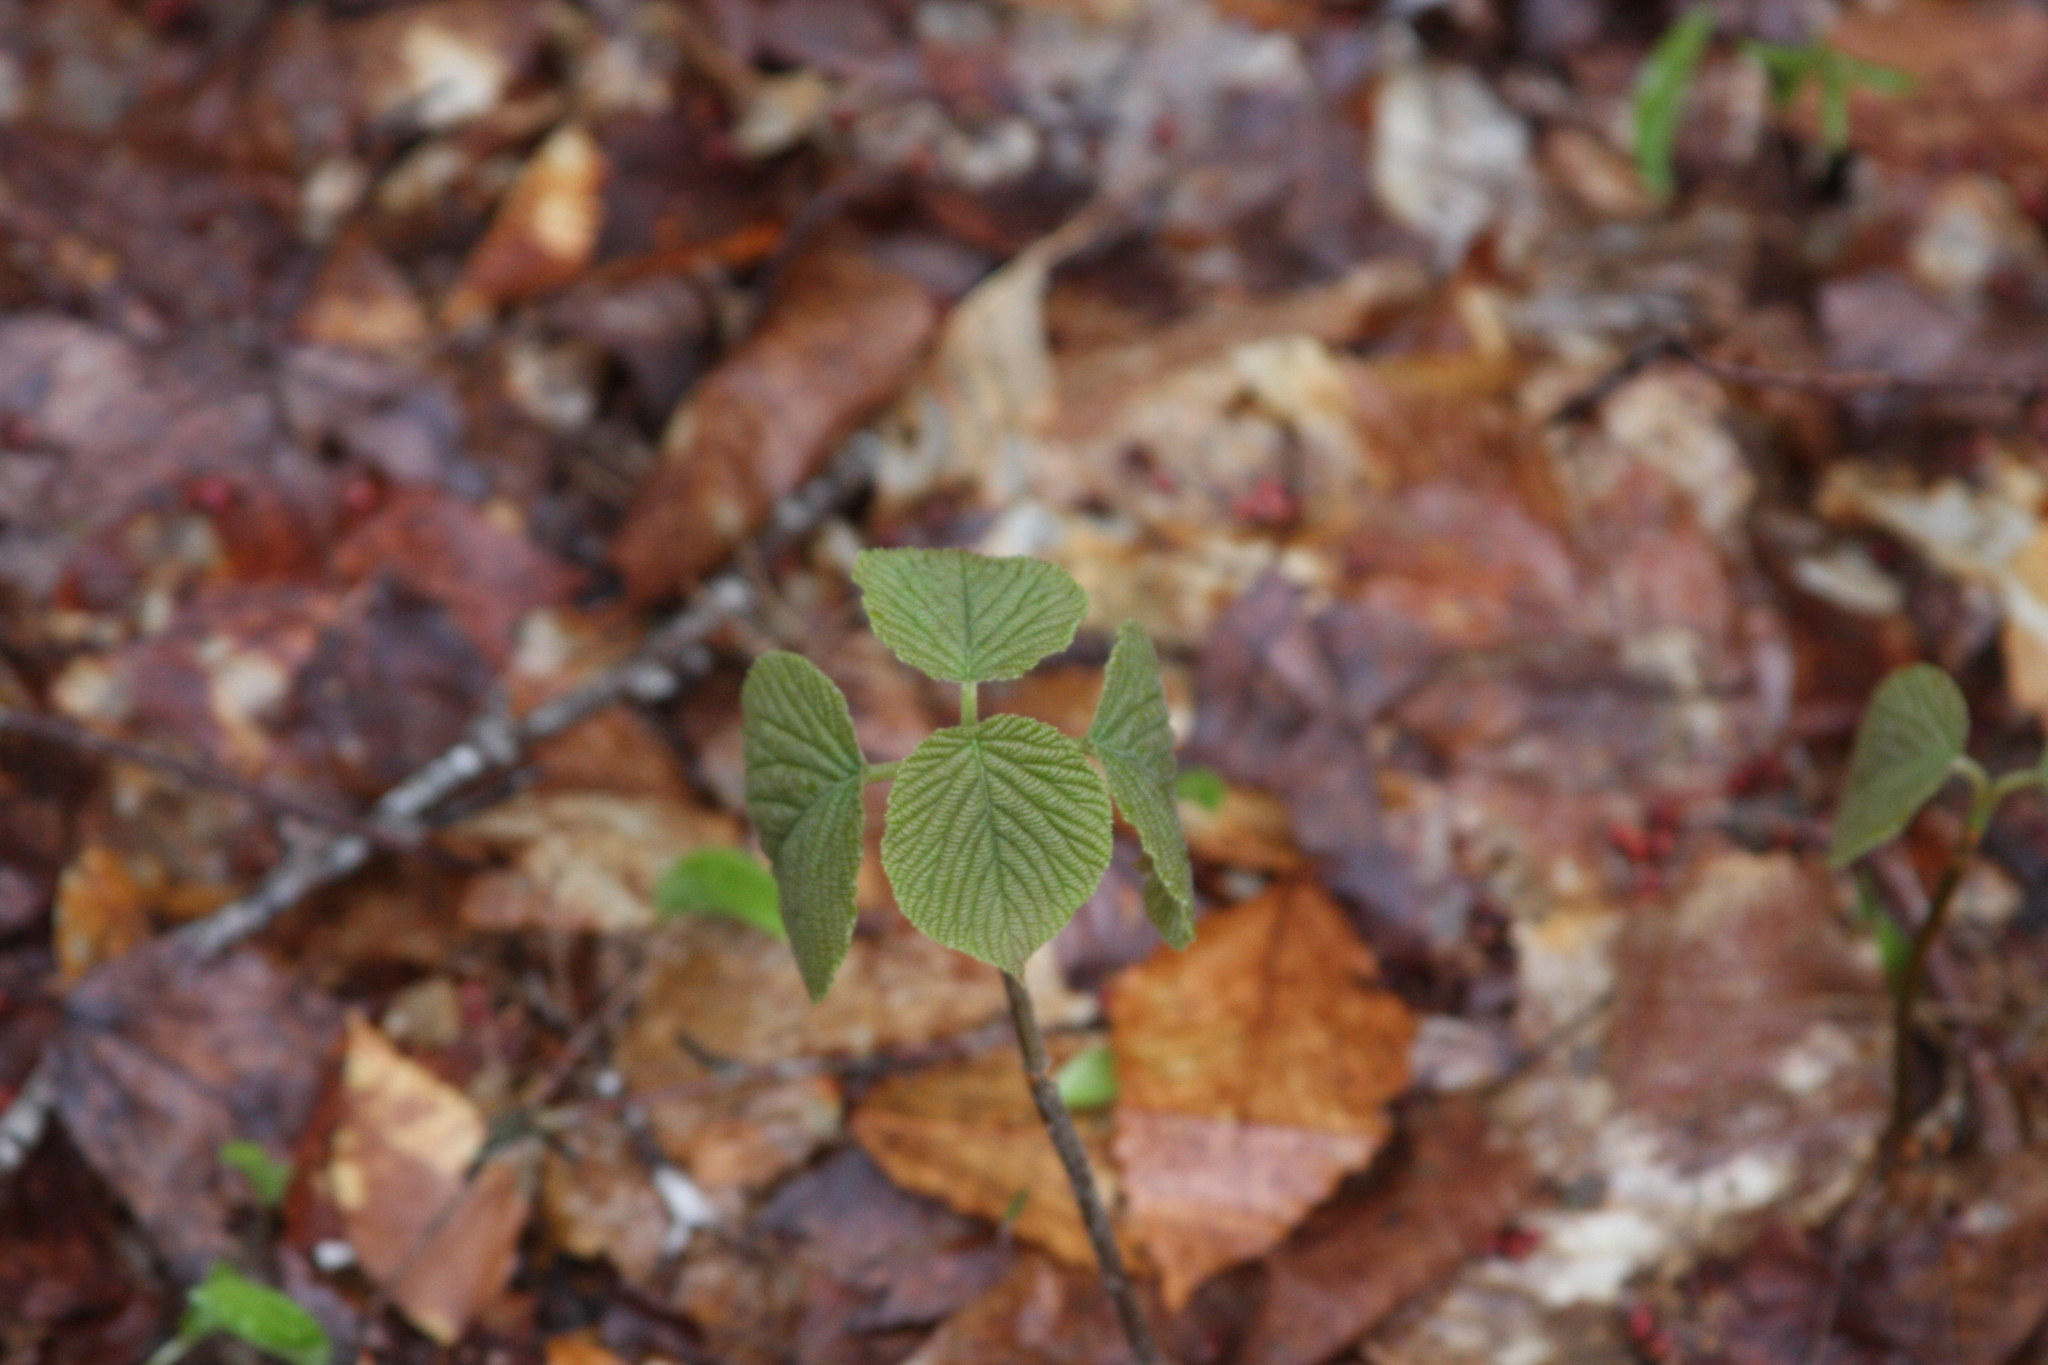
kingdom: Plantae
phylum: Tracheophyta
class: Magnoliopsida
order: Dipsacales
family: Viburnaceae
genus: Viburnum
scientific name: Viburnum lantanoides
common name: Hobblebush
